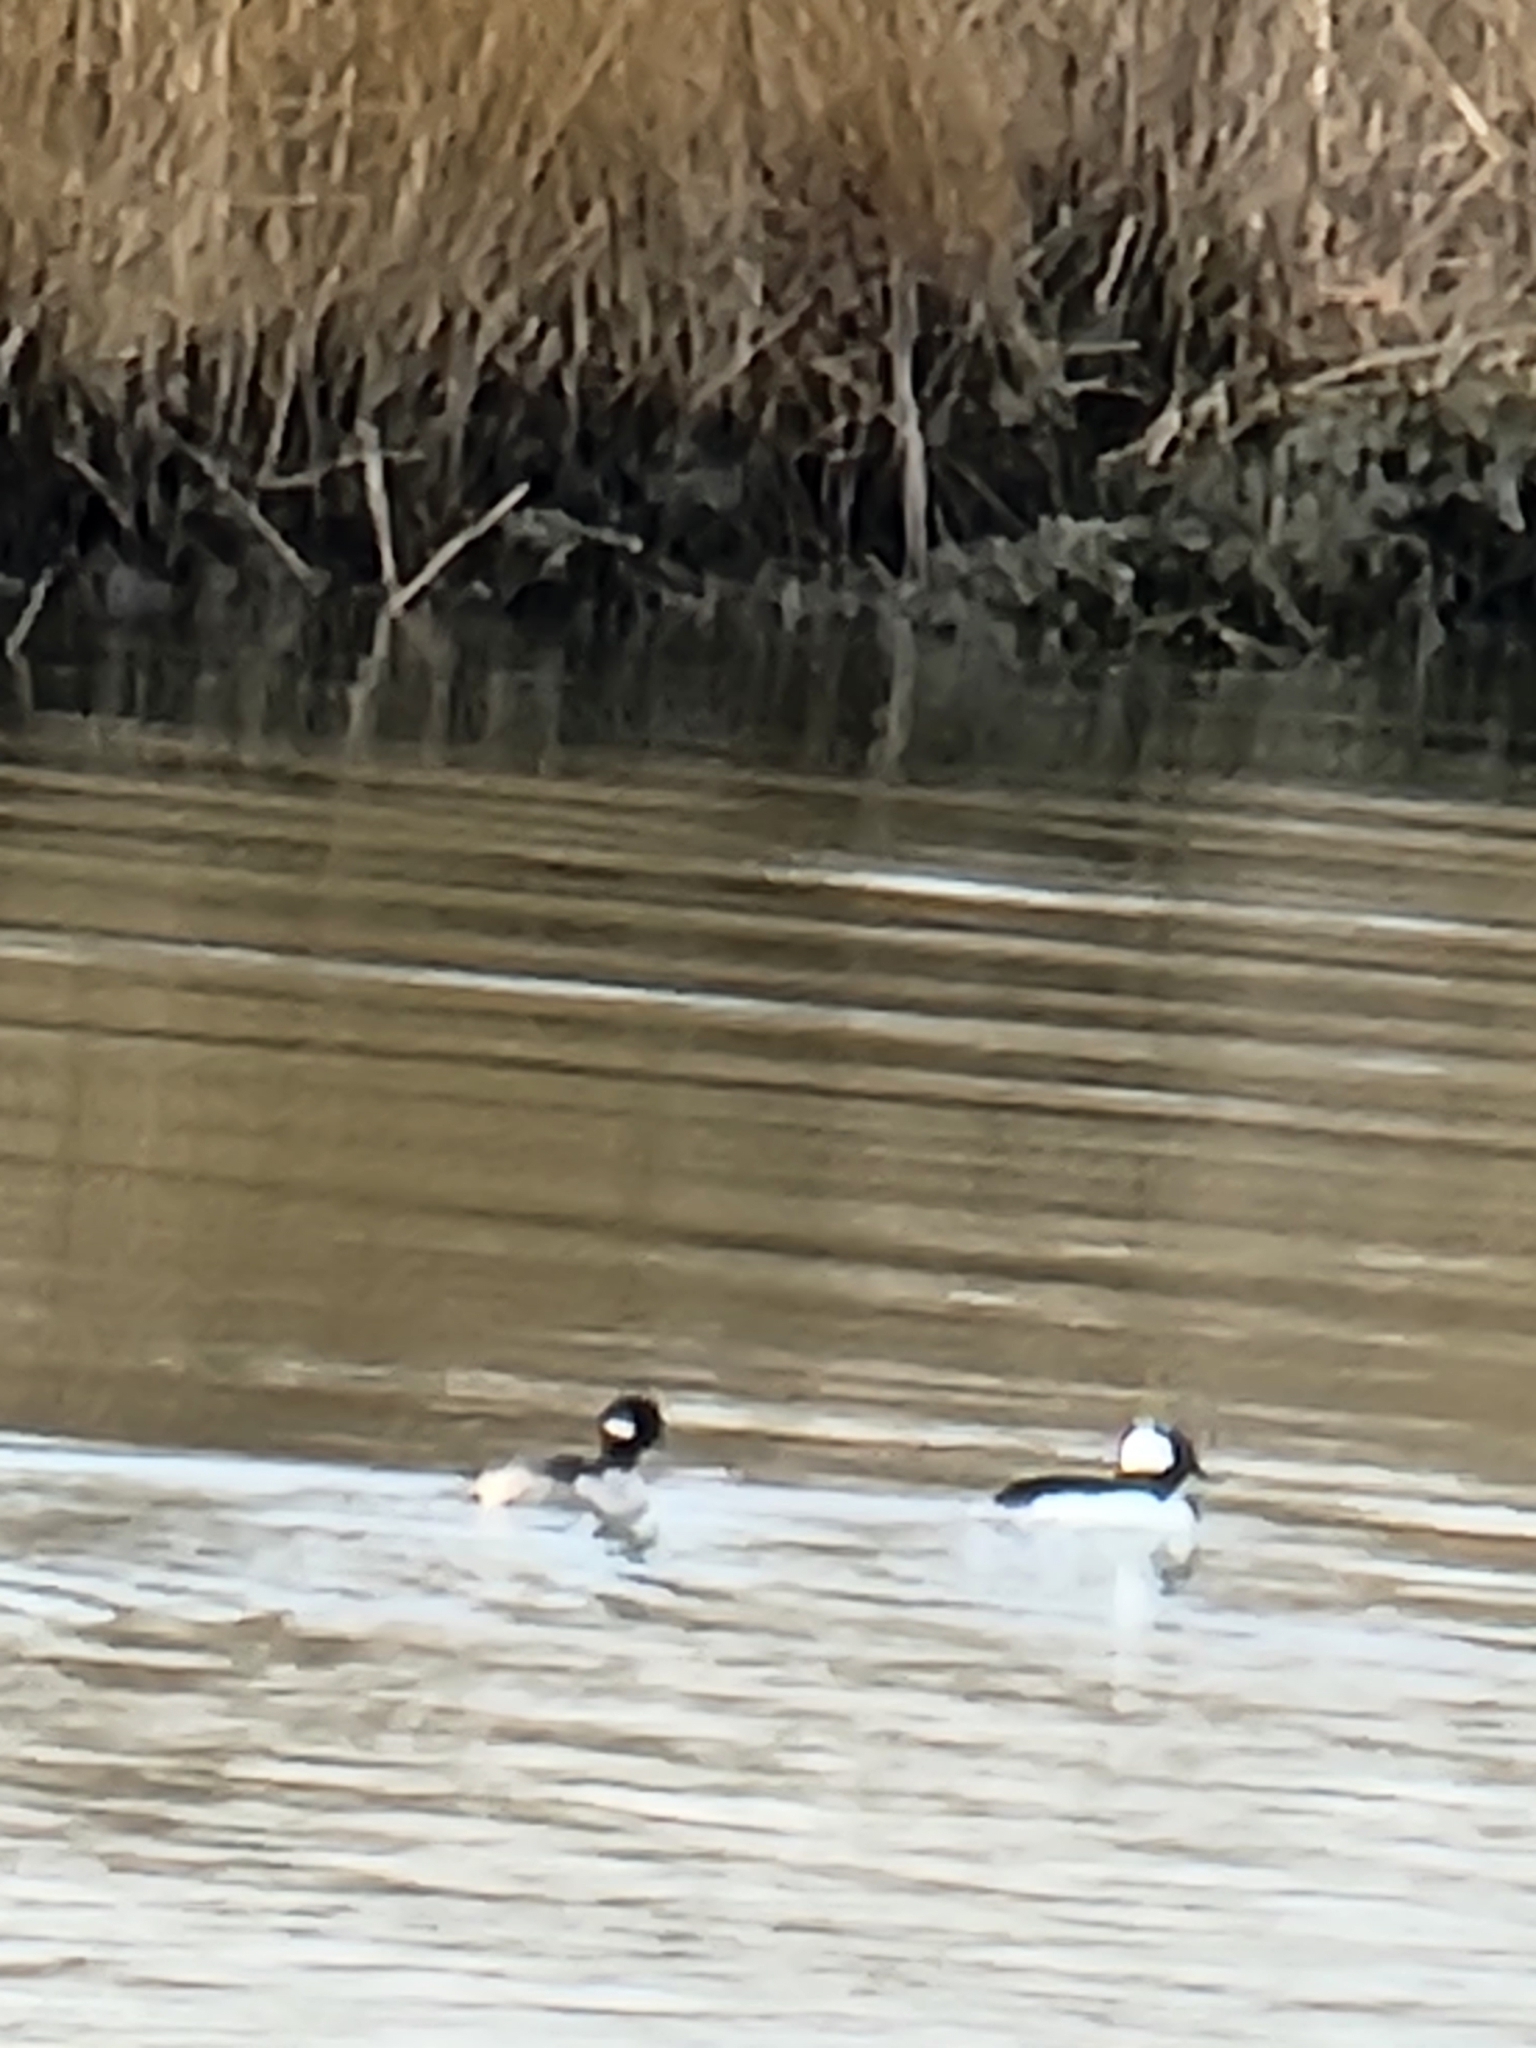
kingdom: Animalia
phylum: Chordata
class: Aves
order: Anseriformes
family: Anatidae
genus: Bucephala
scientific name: Bucephala albeola
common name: Bufflehead
